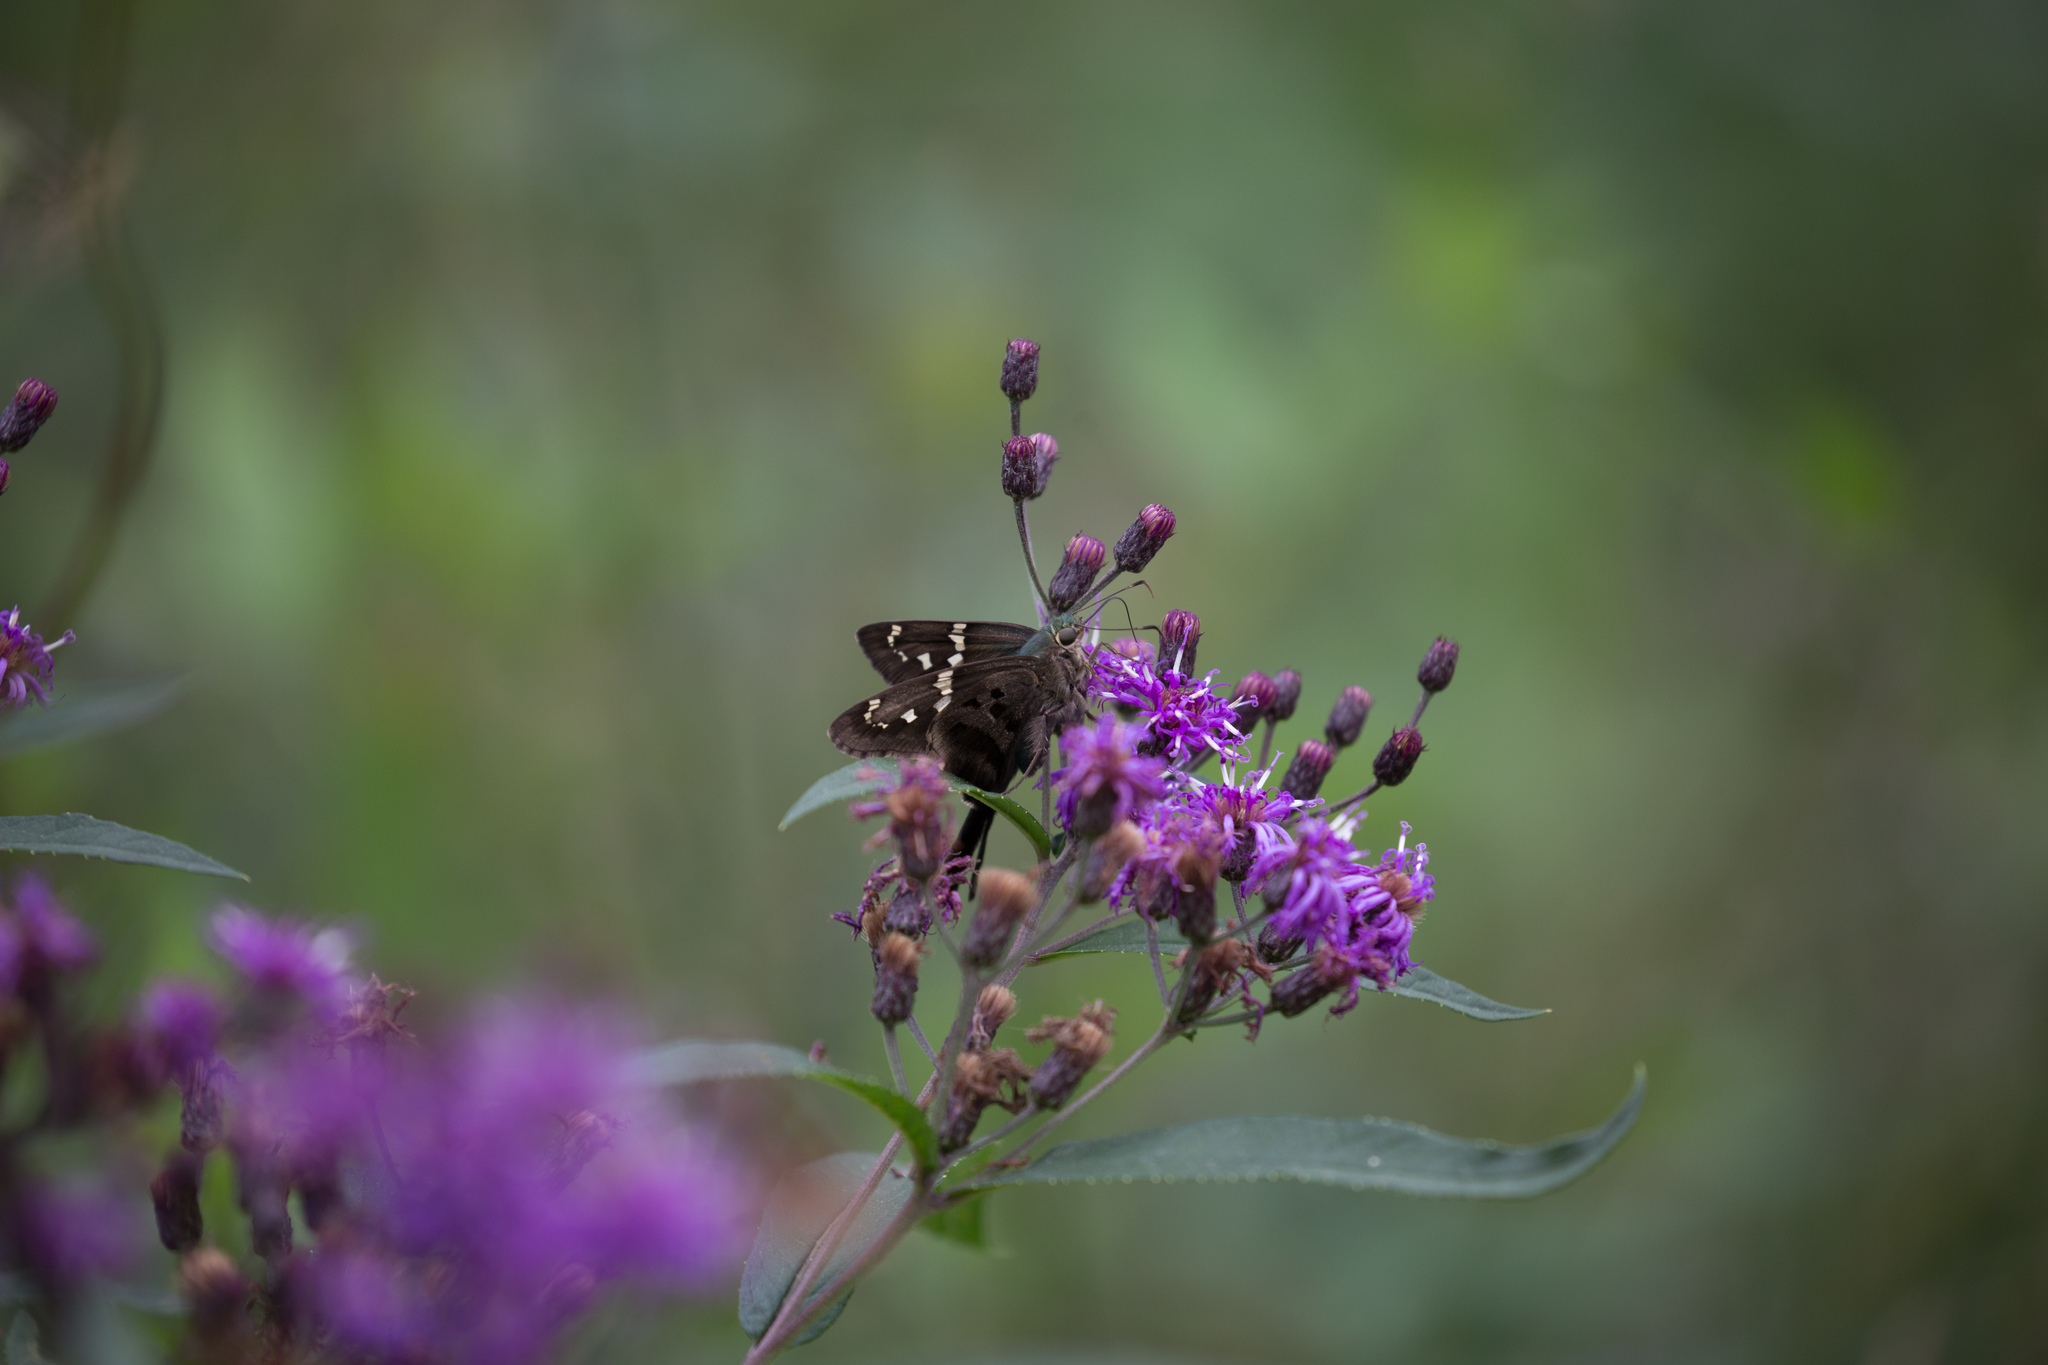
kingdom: Animalia
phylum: Arthropoda
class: Insecta
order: Lepidoptera
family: Hesperiidae
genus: Urbanus
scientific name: Urbanus proteus
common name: Long-tailed skipper
